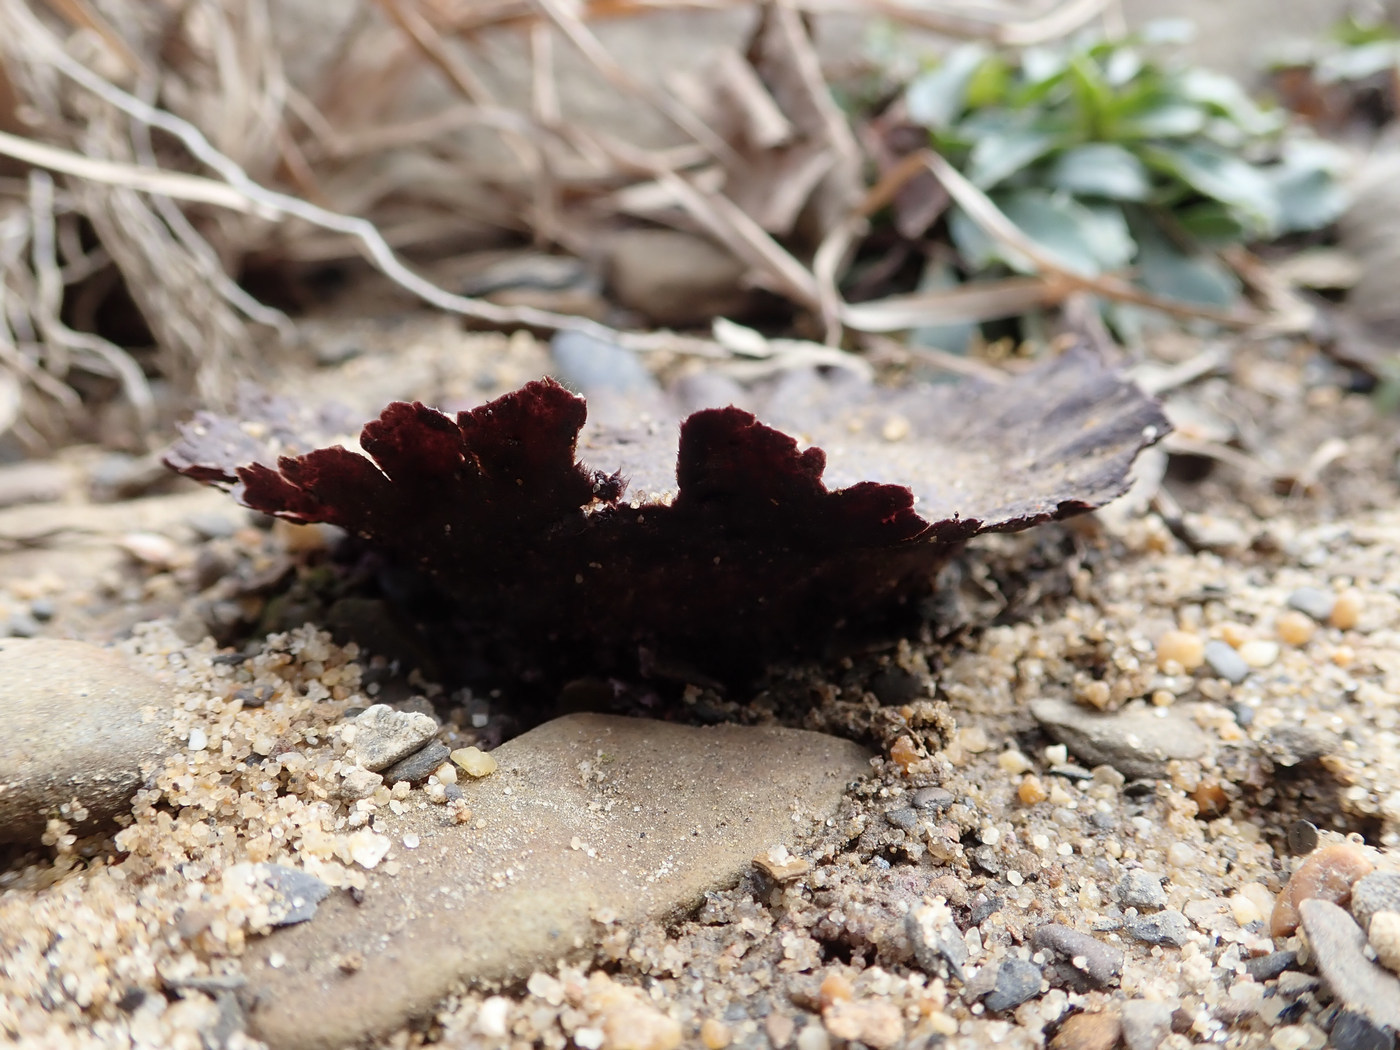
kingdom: Fungi
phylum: Basidiomycota
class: Agaricomycetes
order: Agaricales
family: Lycoperdaceae
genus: Calvatia
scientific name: Calvatia cyathiformis
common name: Purple-spored puffball
